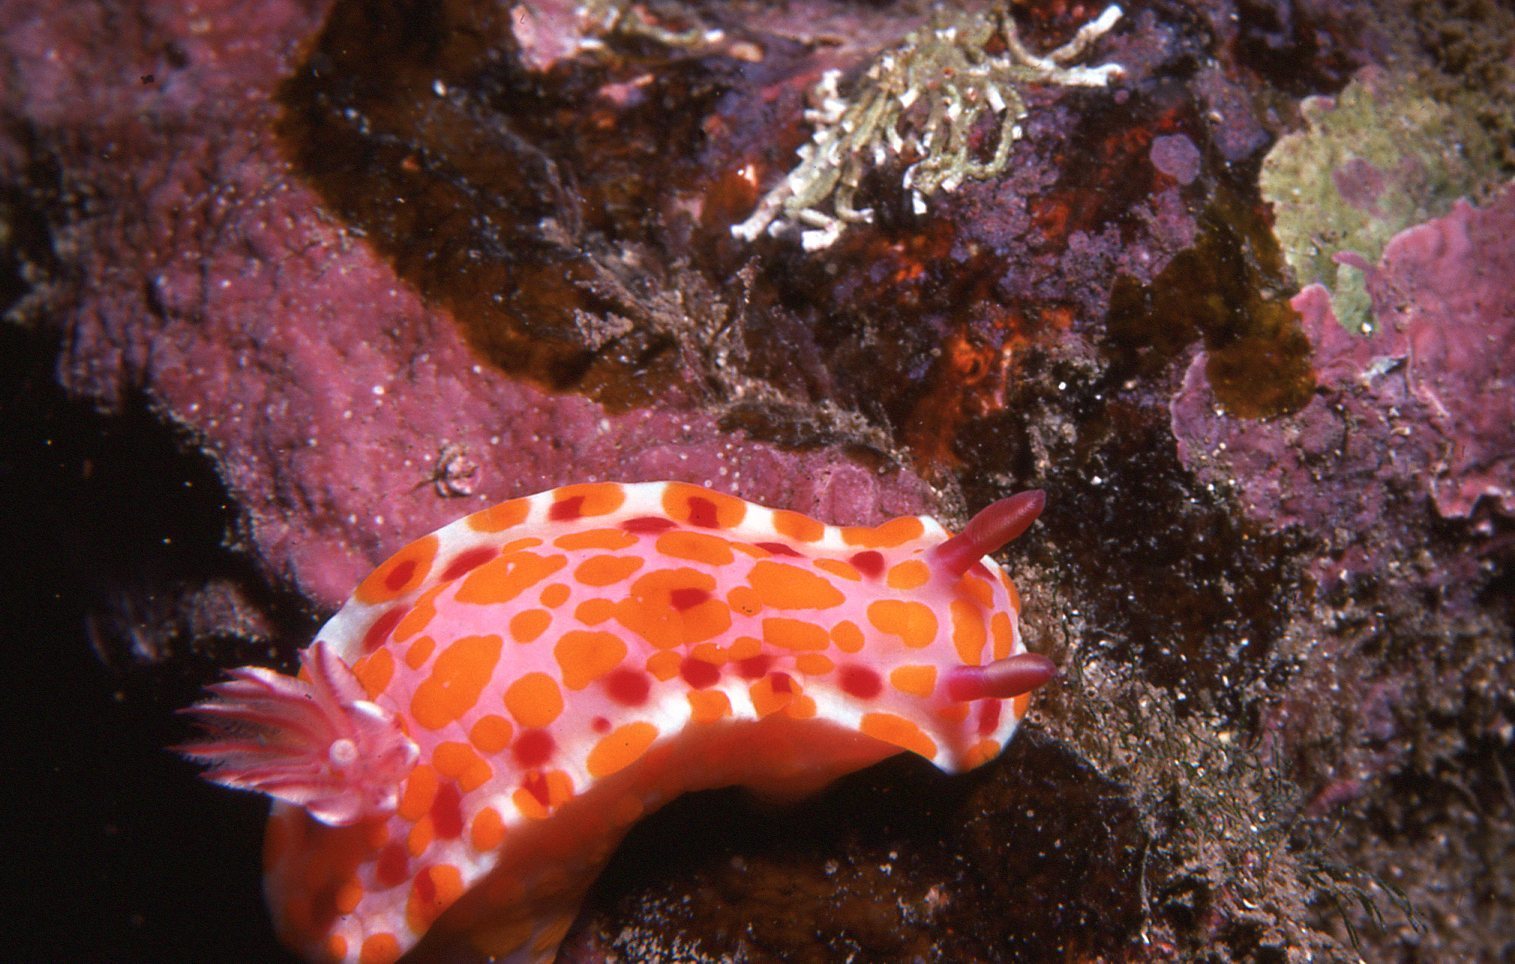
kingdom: Animalia
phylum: Mollusca
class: Gastropoda
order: Nudibranchia
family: Chromodorididae
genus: Ceratosoma
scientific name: Ceratosoma amoenum
